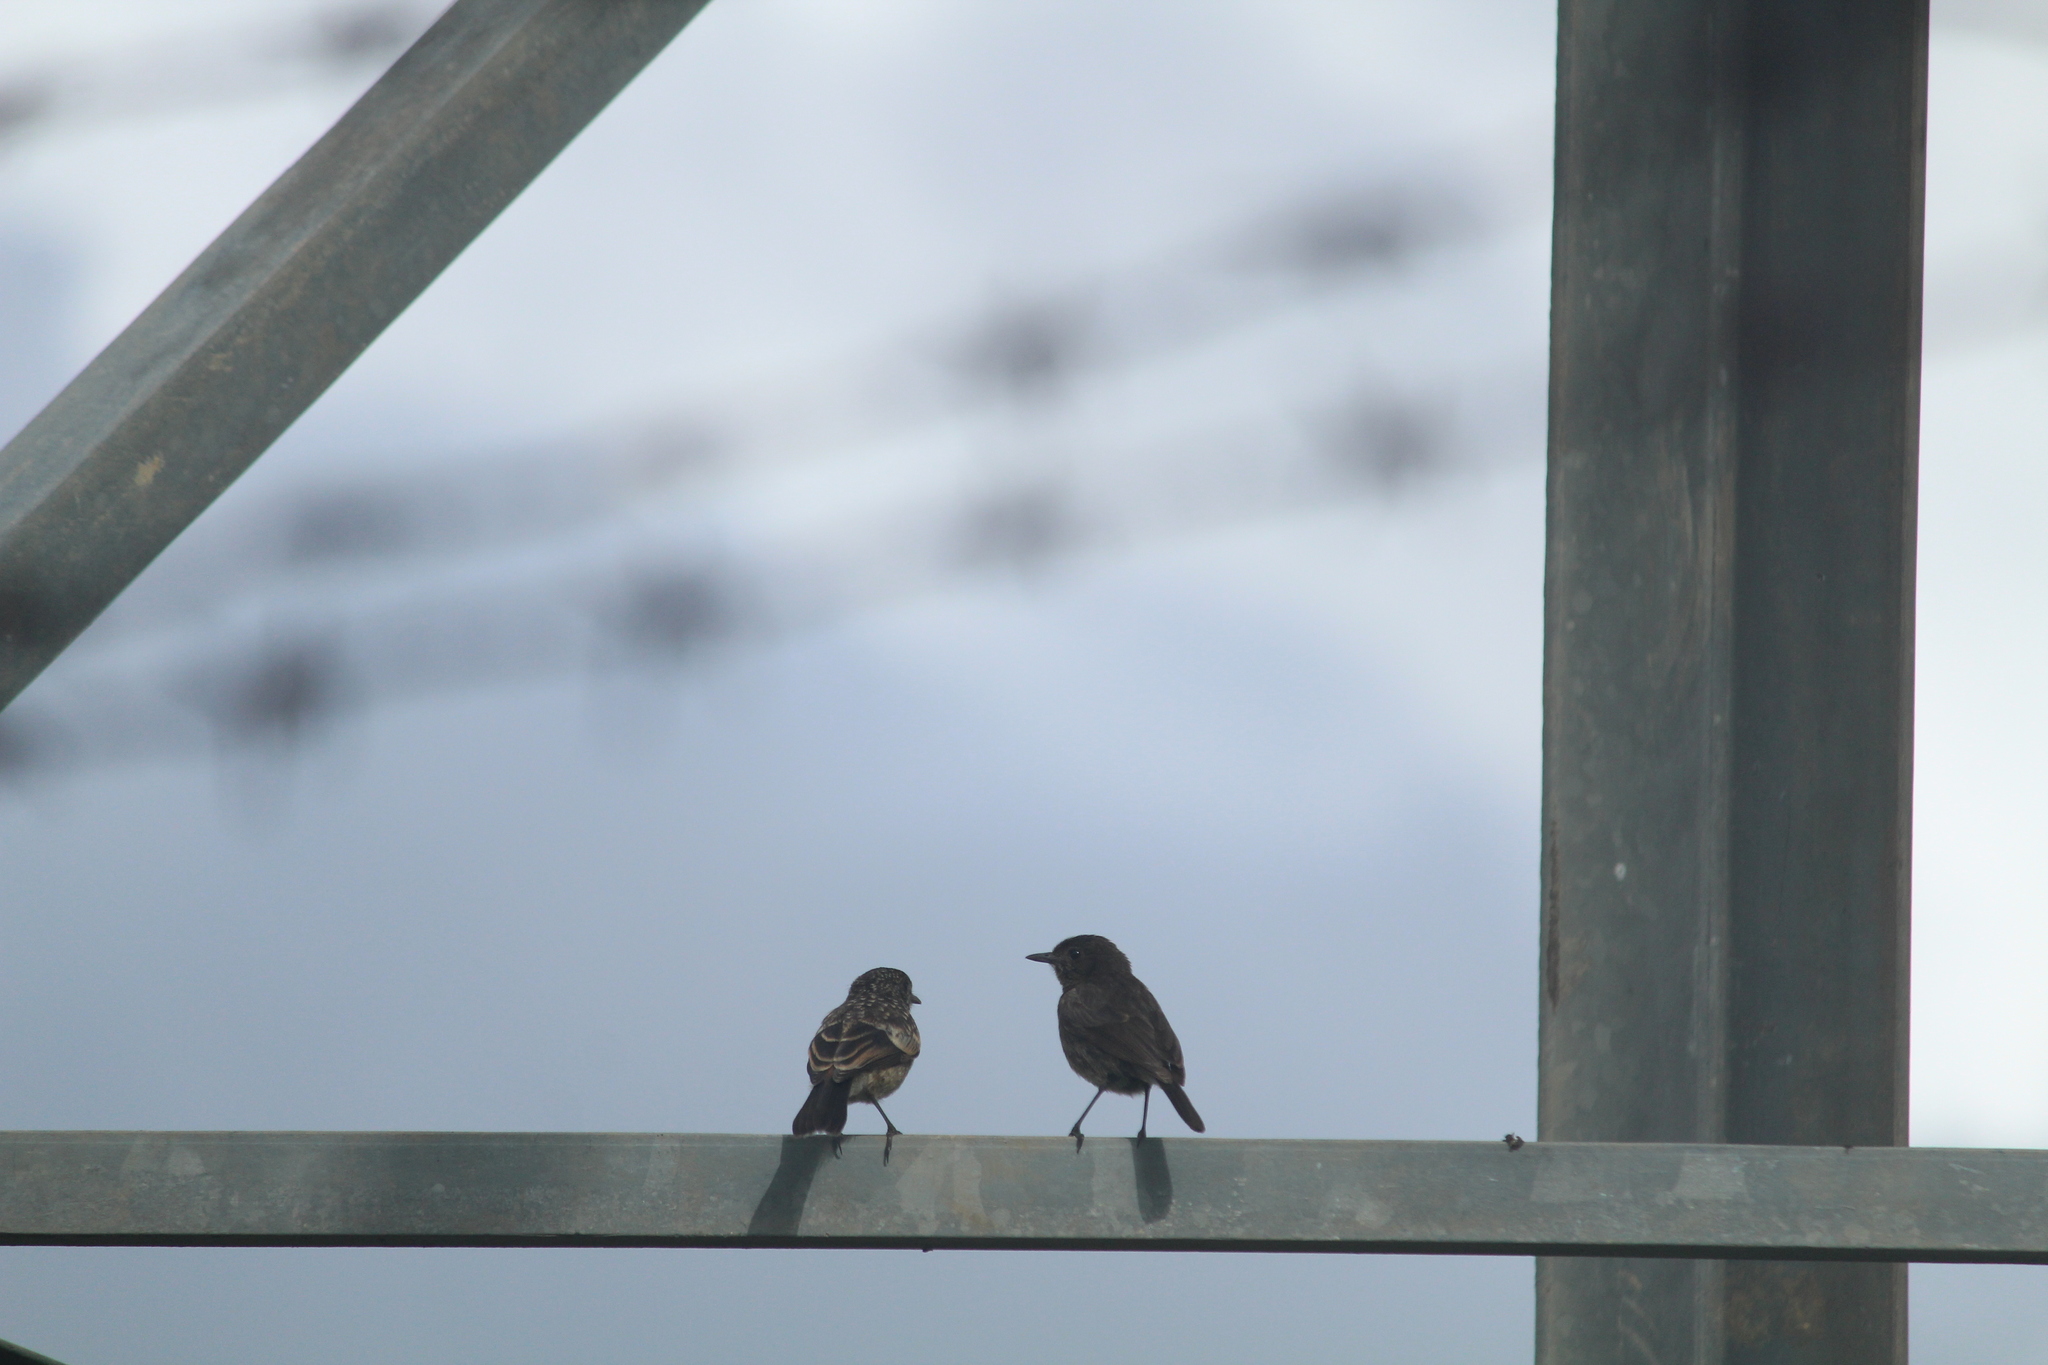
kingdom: Animalia
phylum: Chordata
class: Aves
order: Passeriformes
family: Muscicapidae
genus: Saxicola
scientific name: Saxicola caprata
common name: Pied bush chat
